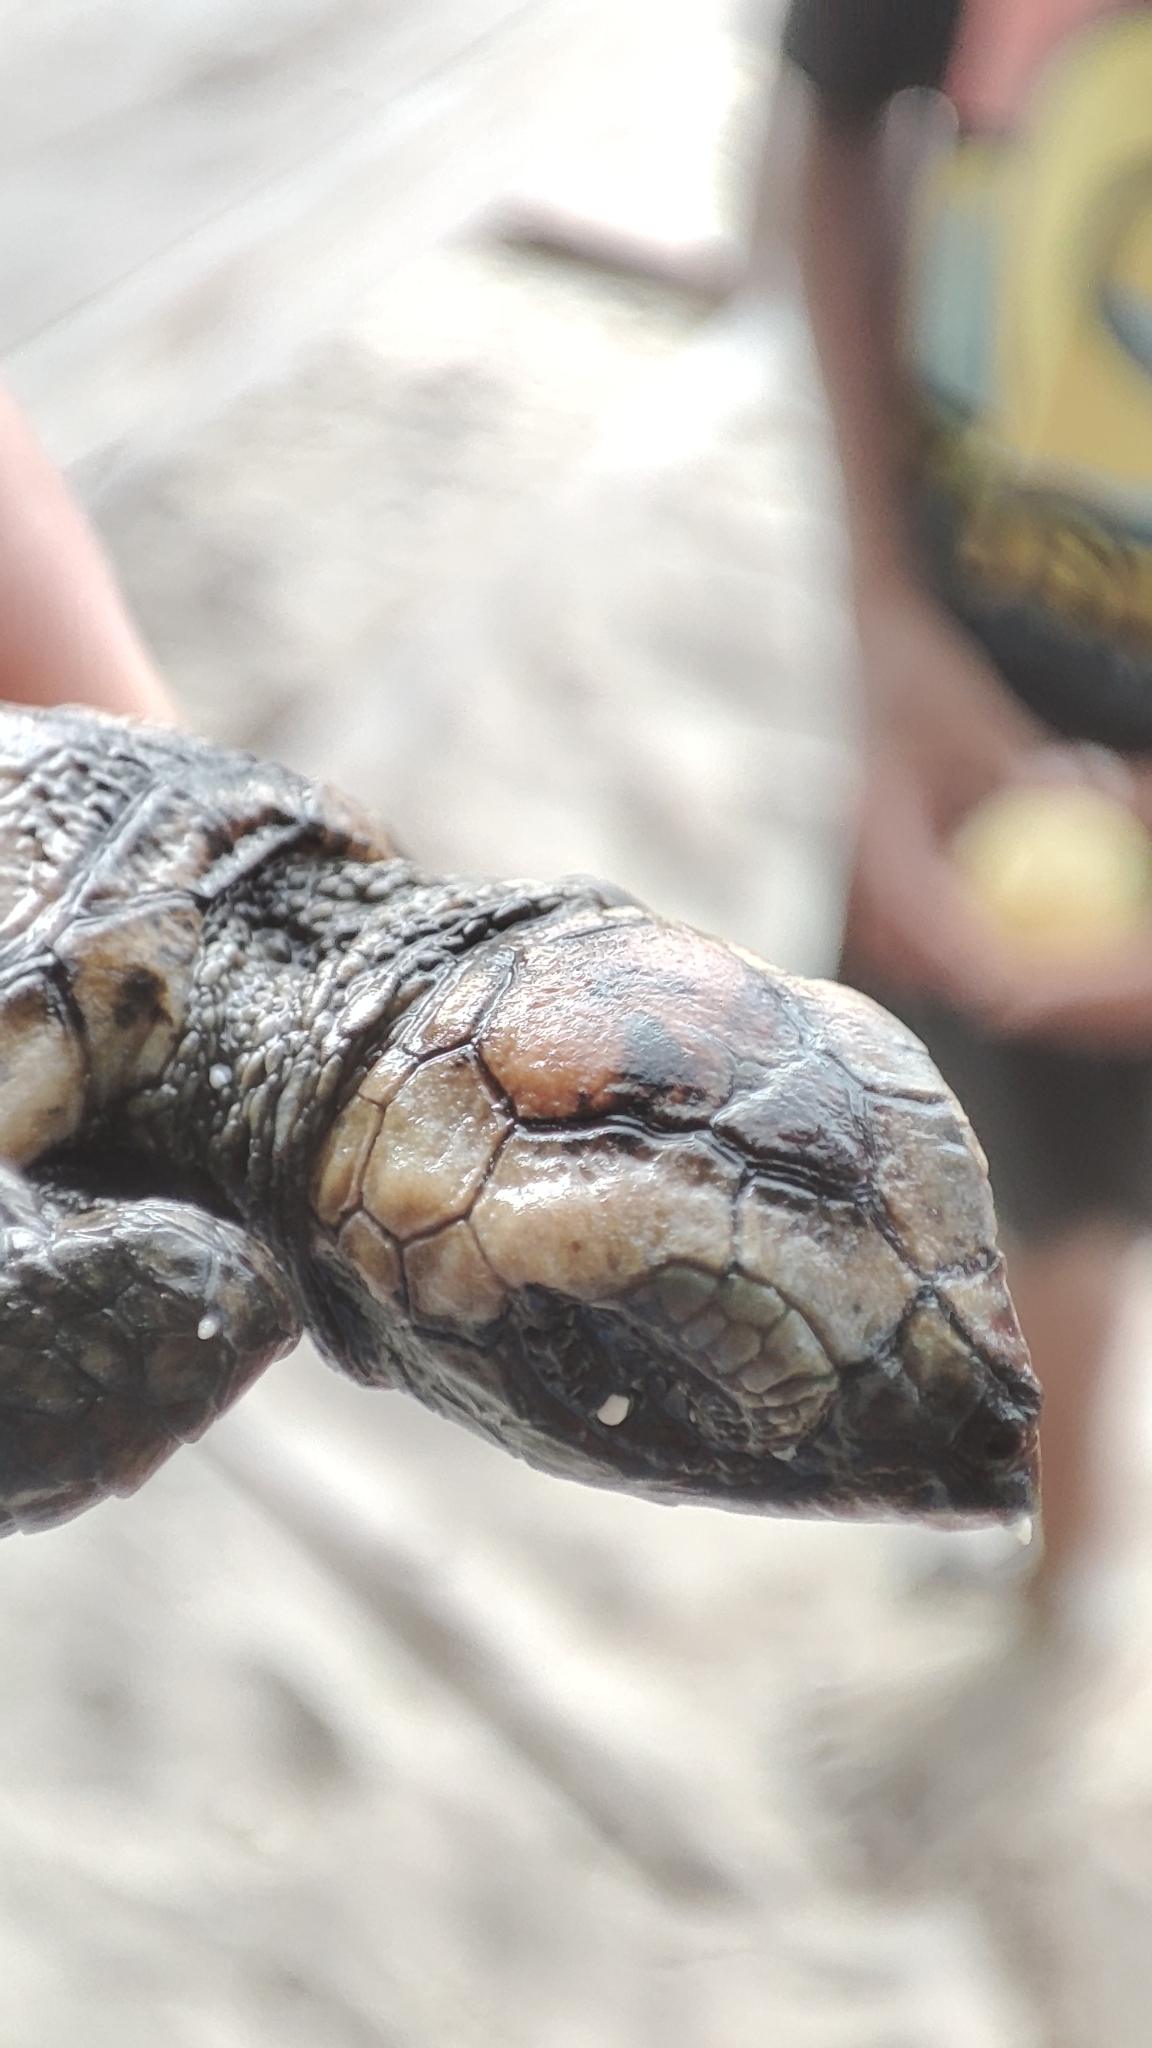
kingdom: Animalia
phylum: Chordata
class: Testudines
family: Cheloniidae
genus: Eretmochelys
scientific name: Eretmochelys imbricata
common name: Hawksbill turtle
